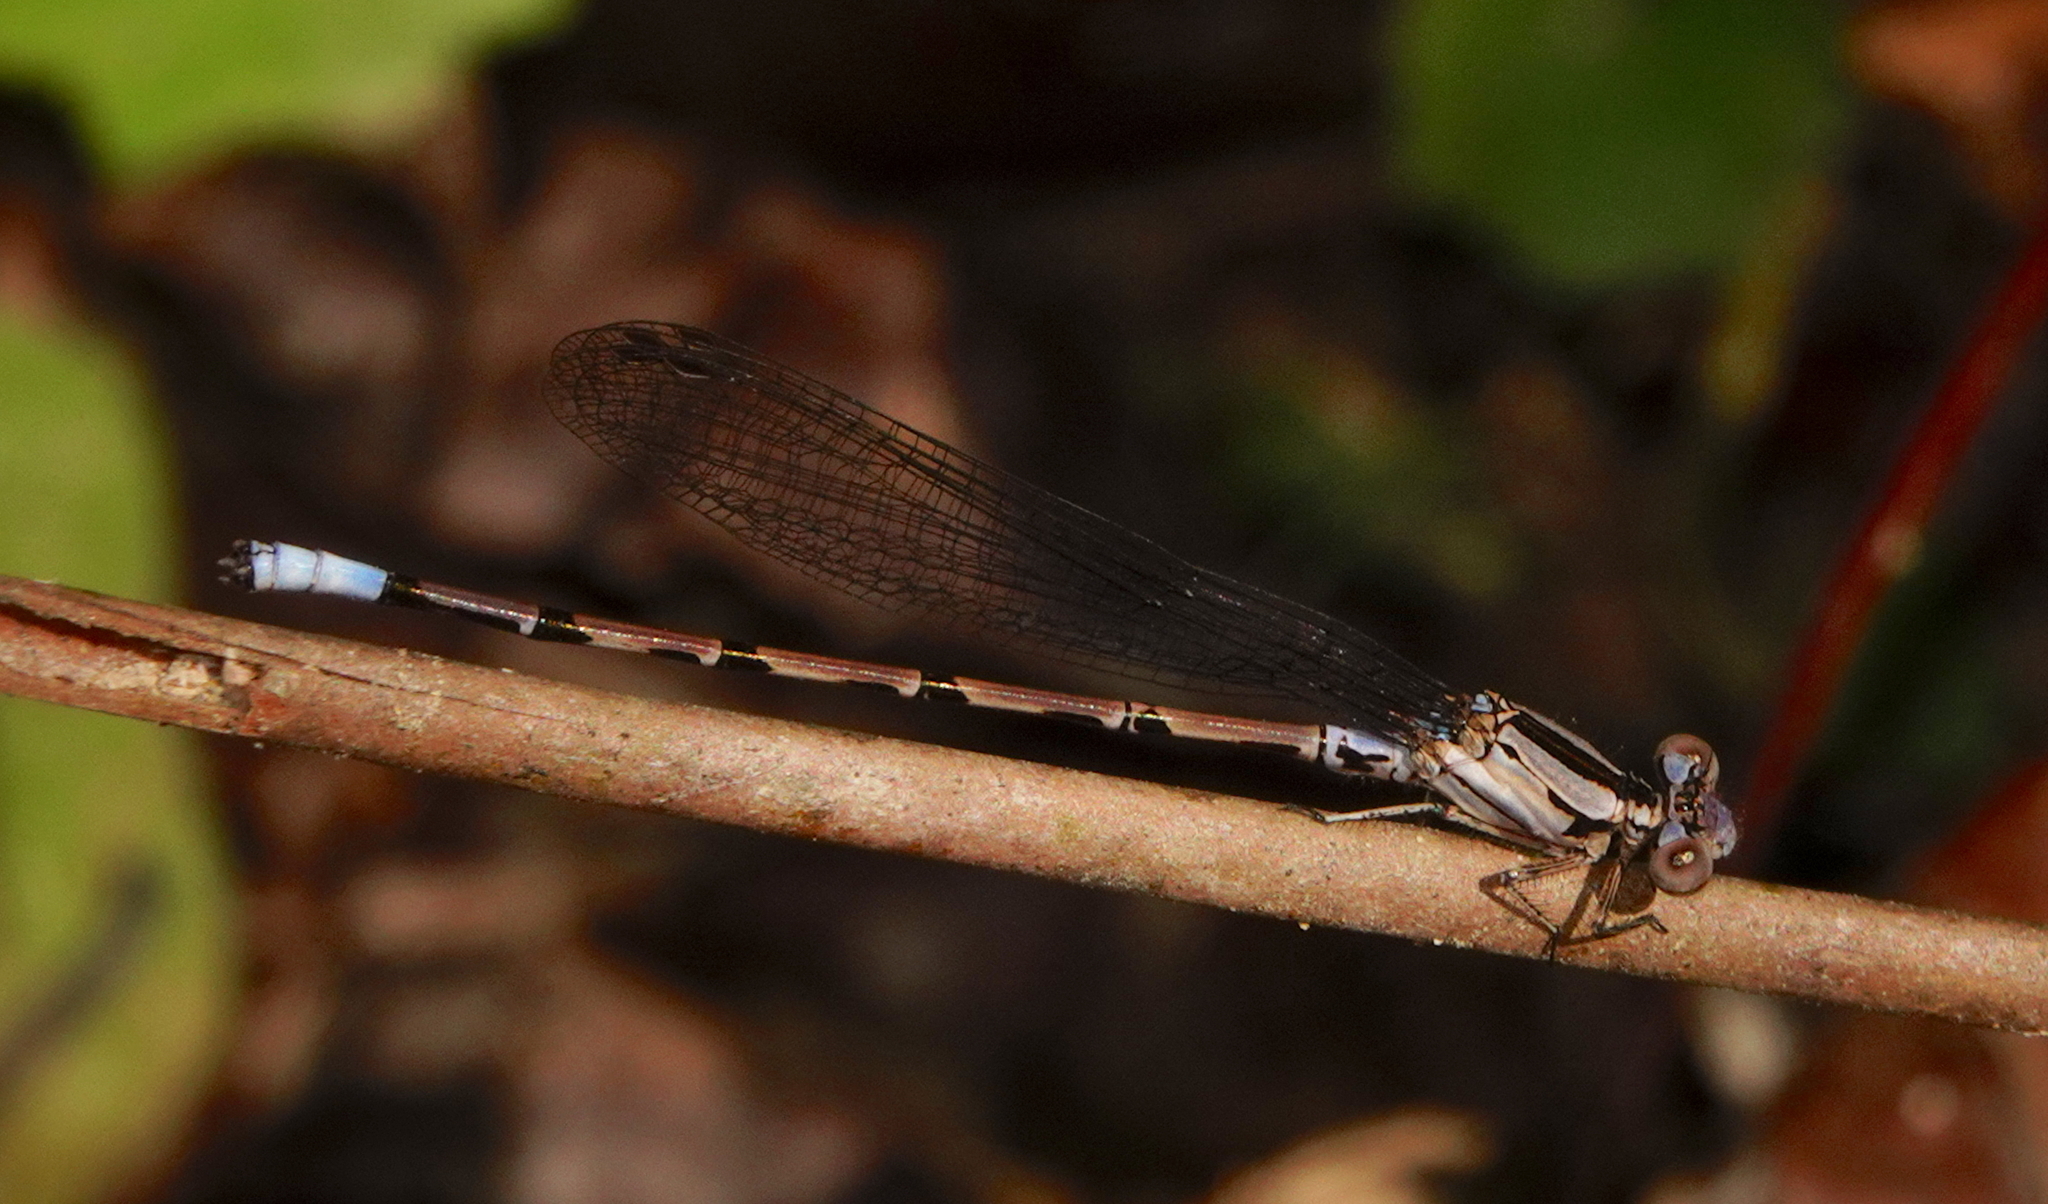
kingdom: Animalia
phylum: Arthropoda
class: Insecta
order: Odonata
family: Coenagrionidae
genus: Argia
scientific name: Argia elongata
